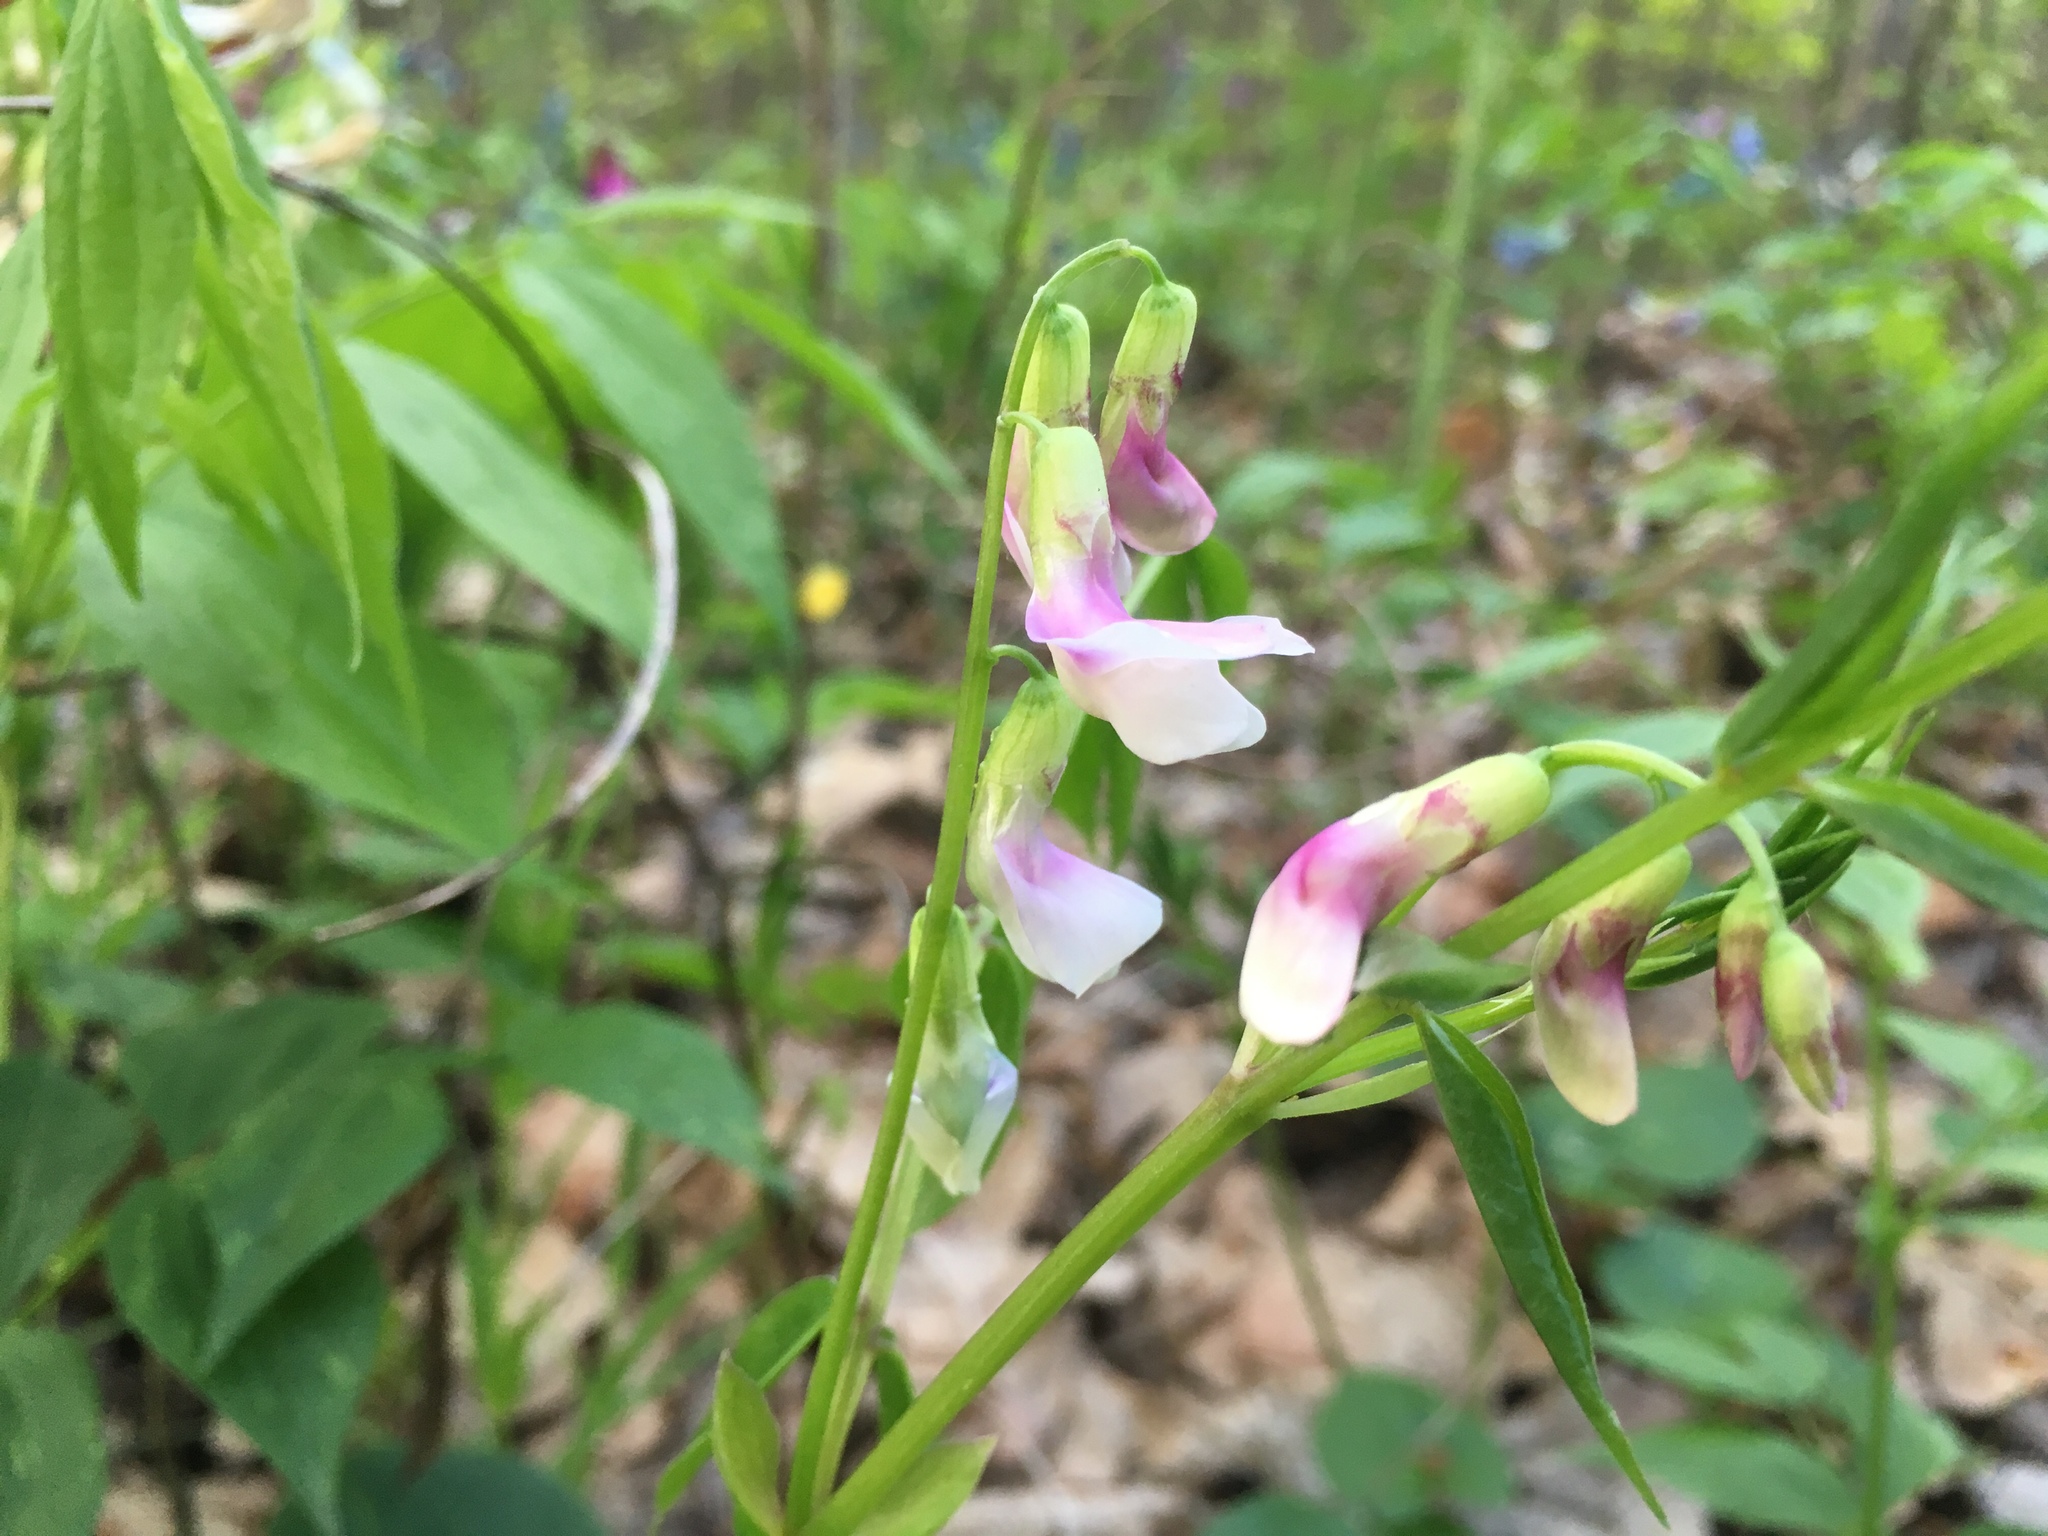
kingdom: Plantae
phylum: Tracheophyta
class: Magnoliopsida
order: Fabales
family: Fabaceae
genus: Lathyrus
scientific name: Lathyrus vernus
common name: Spring pea
